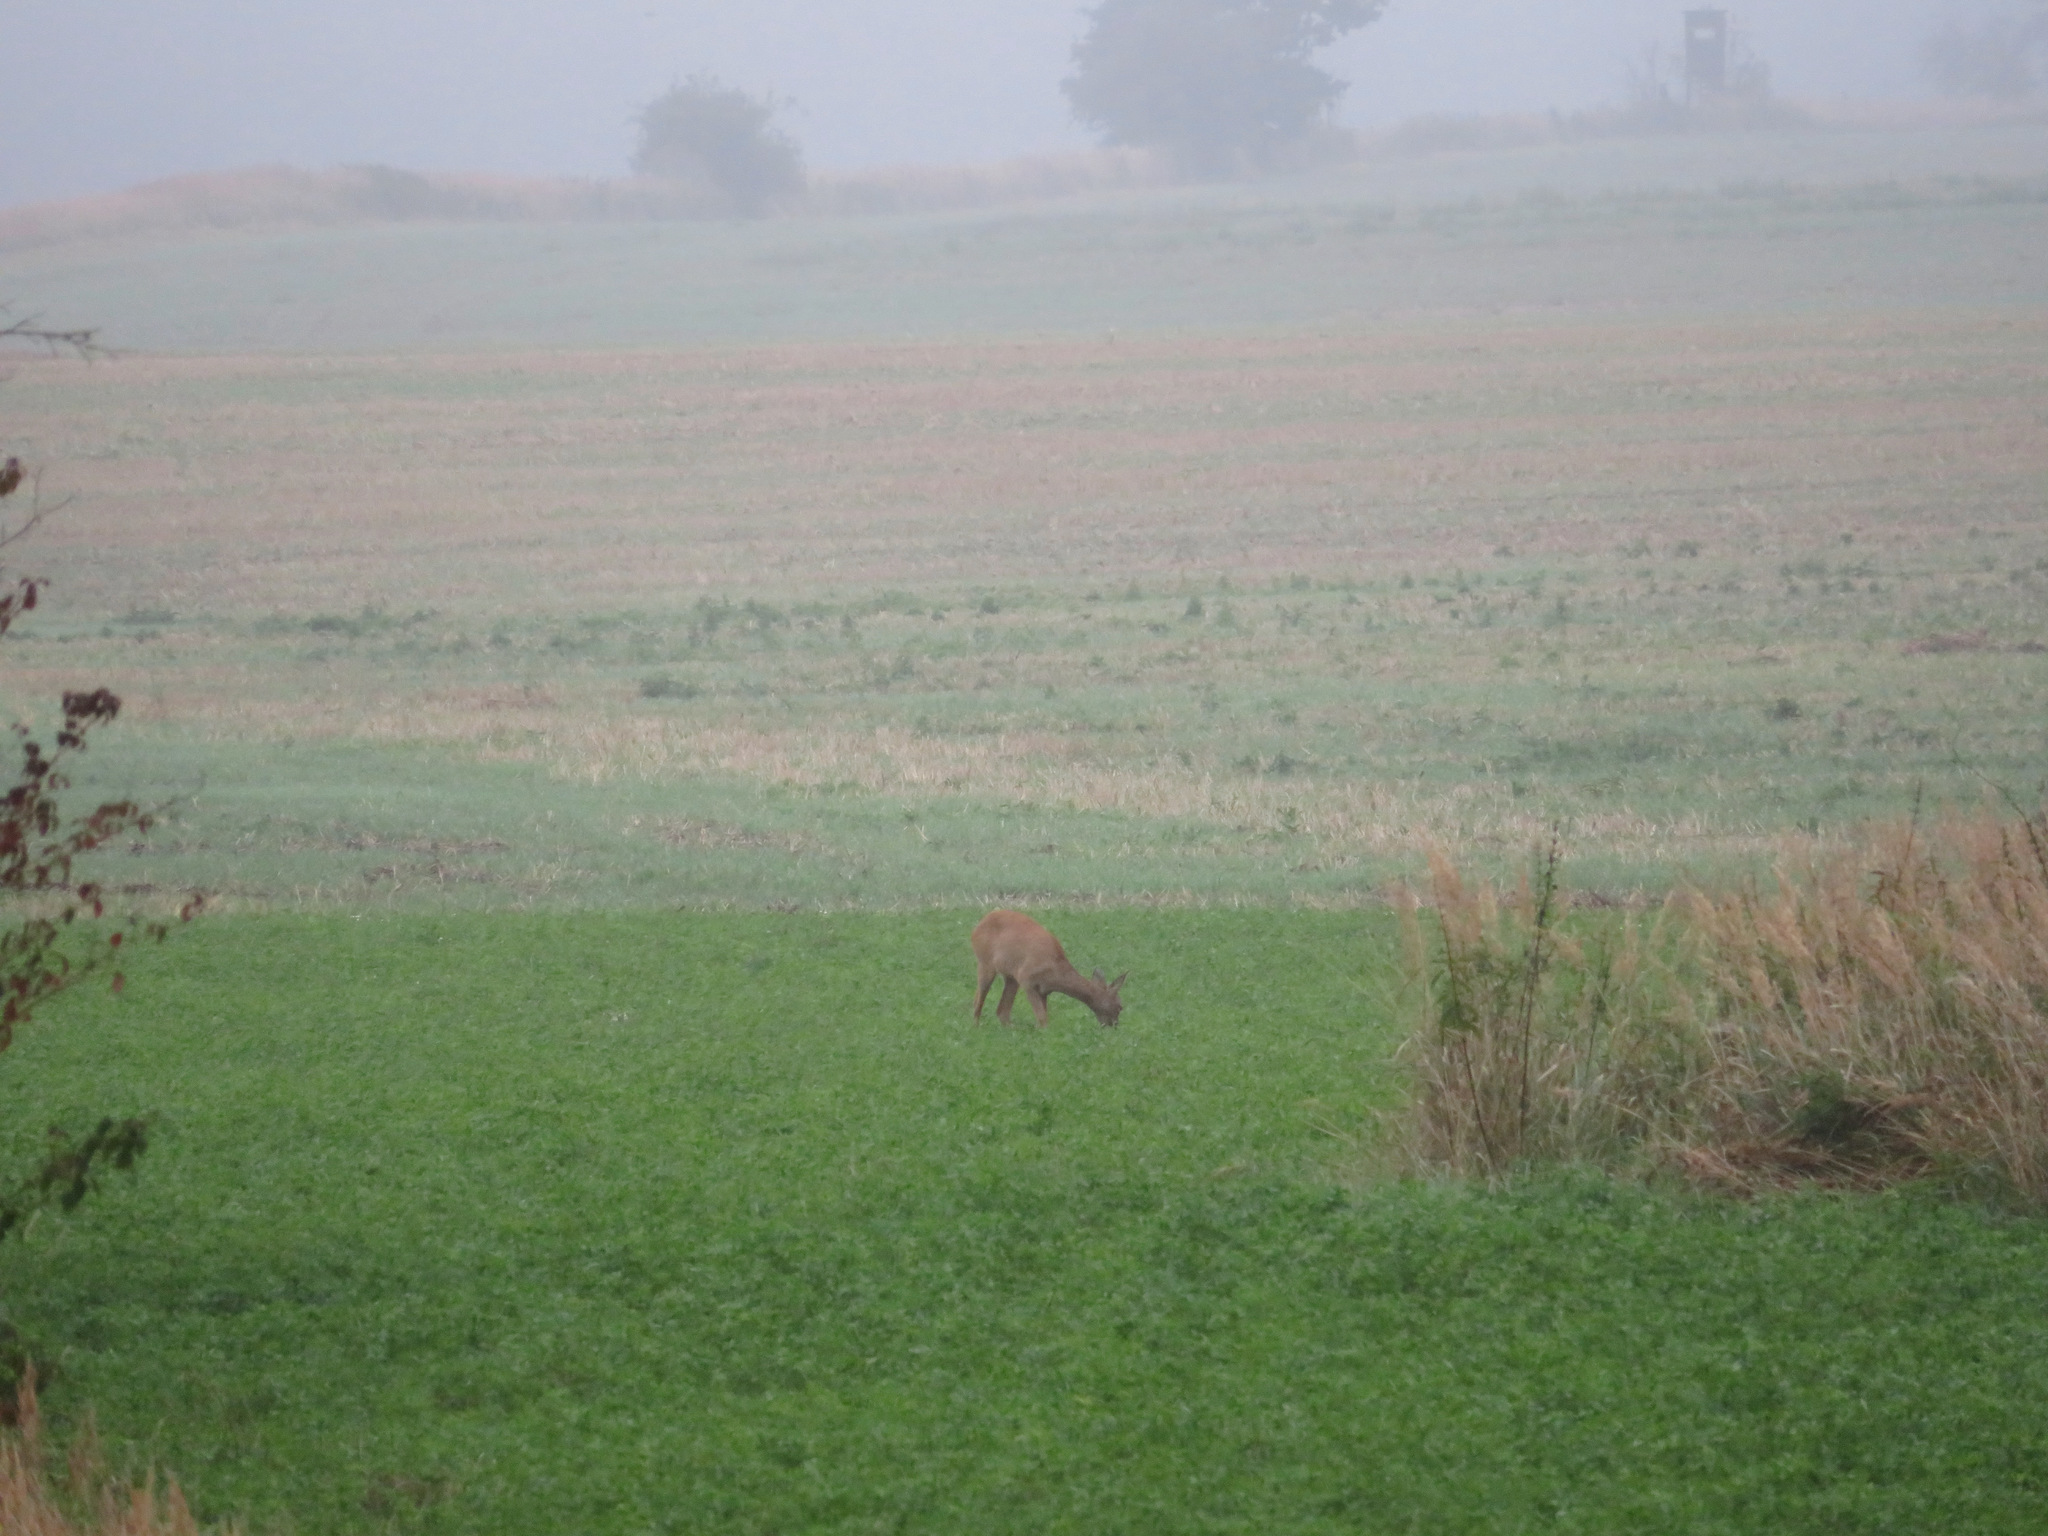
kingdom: Animalia
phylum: Chordata
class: Mammalia
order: Artiodactyla
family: Cervidae
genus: Capreolus
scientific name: Capreolus capreolus
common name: Western roe deer
